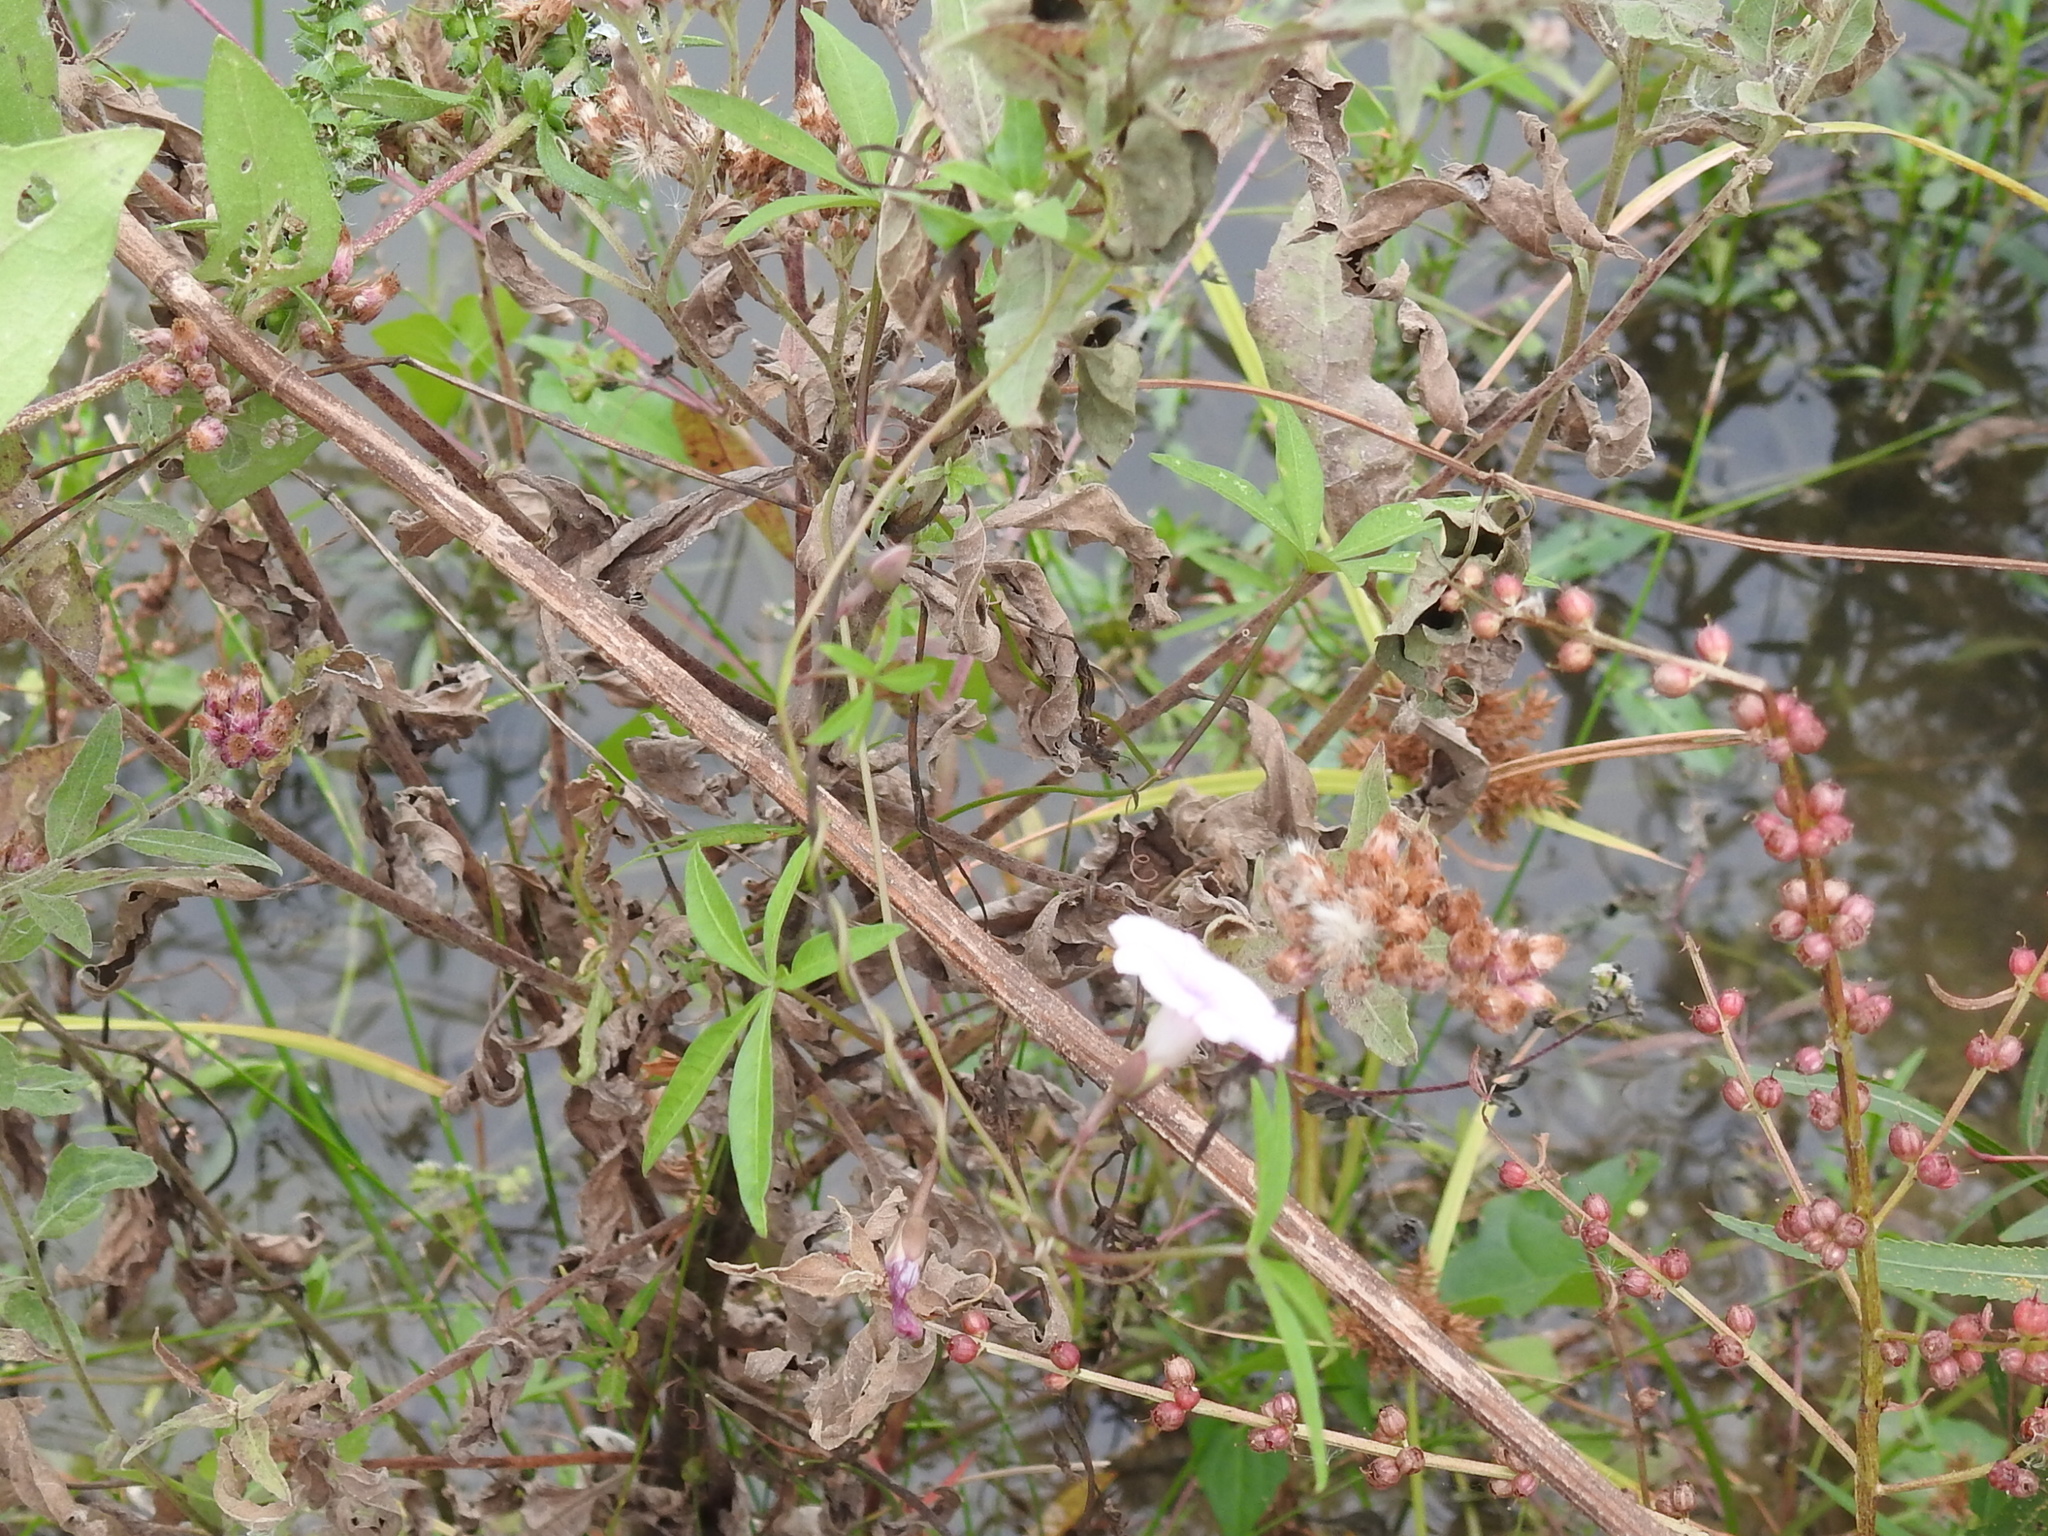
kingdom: Plantae
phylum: Tracheophyta
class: Magnoliopsida
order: Solanales
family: Convolvulaceae
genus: Ipomoea
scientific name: Ipomoea heptaphylla
